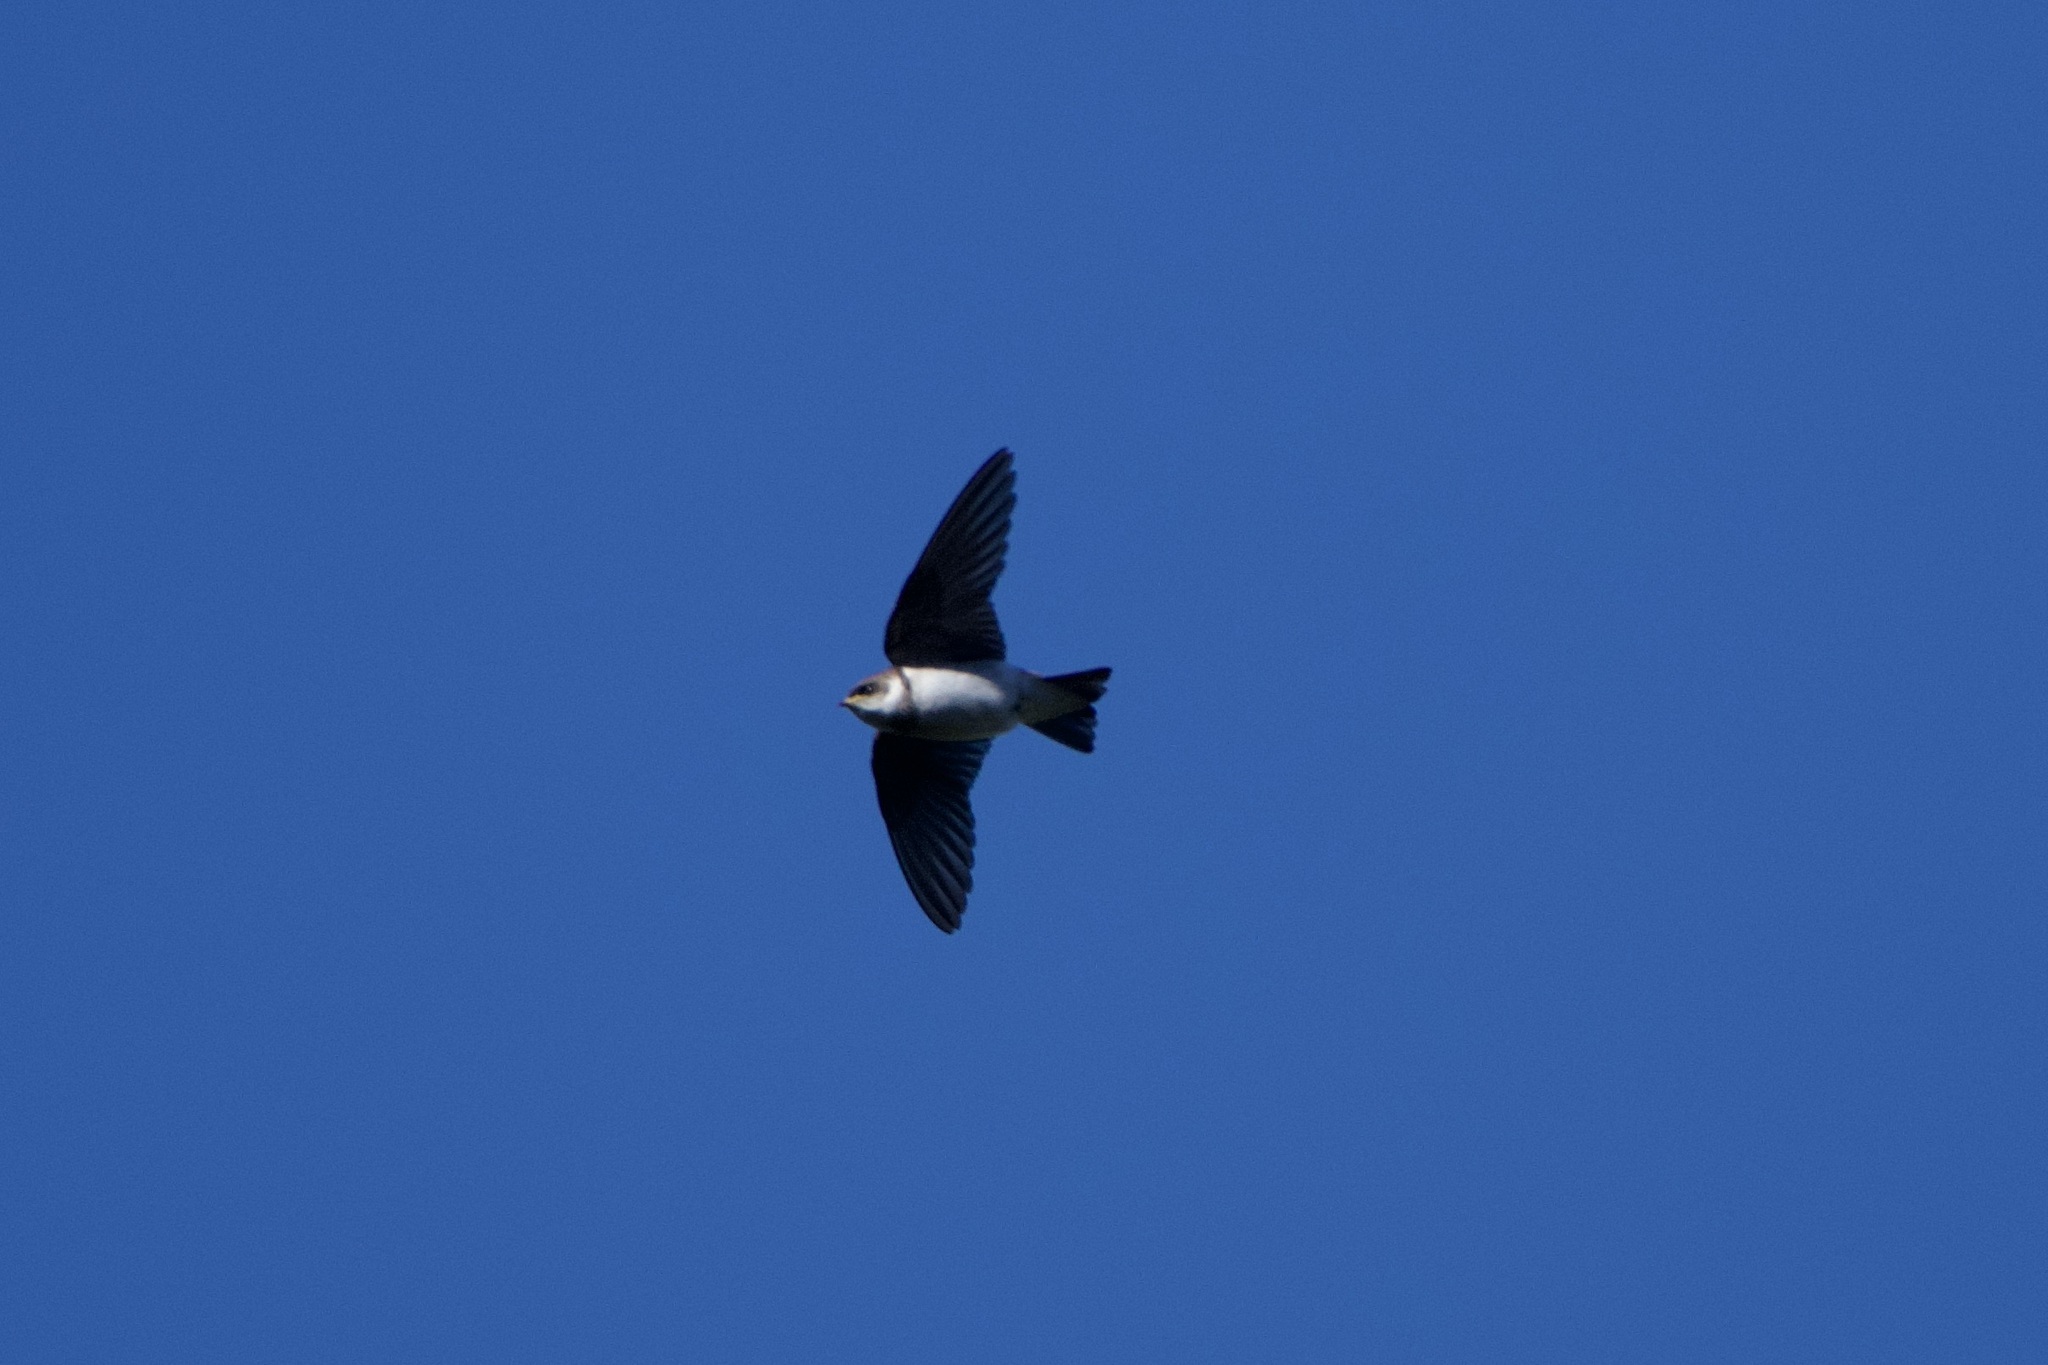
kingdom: Animalia
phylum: Chordata
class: Aves
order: Passeriformes
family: Hirundinidae
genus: Tachycineta
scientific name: Tachycineta thalassina
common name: Violet-green swallow
